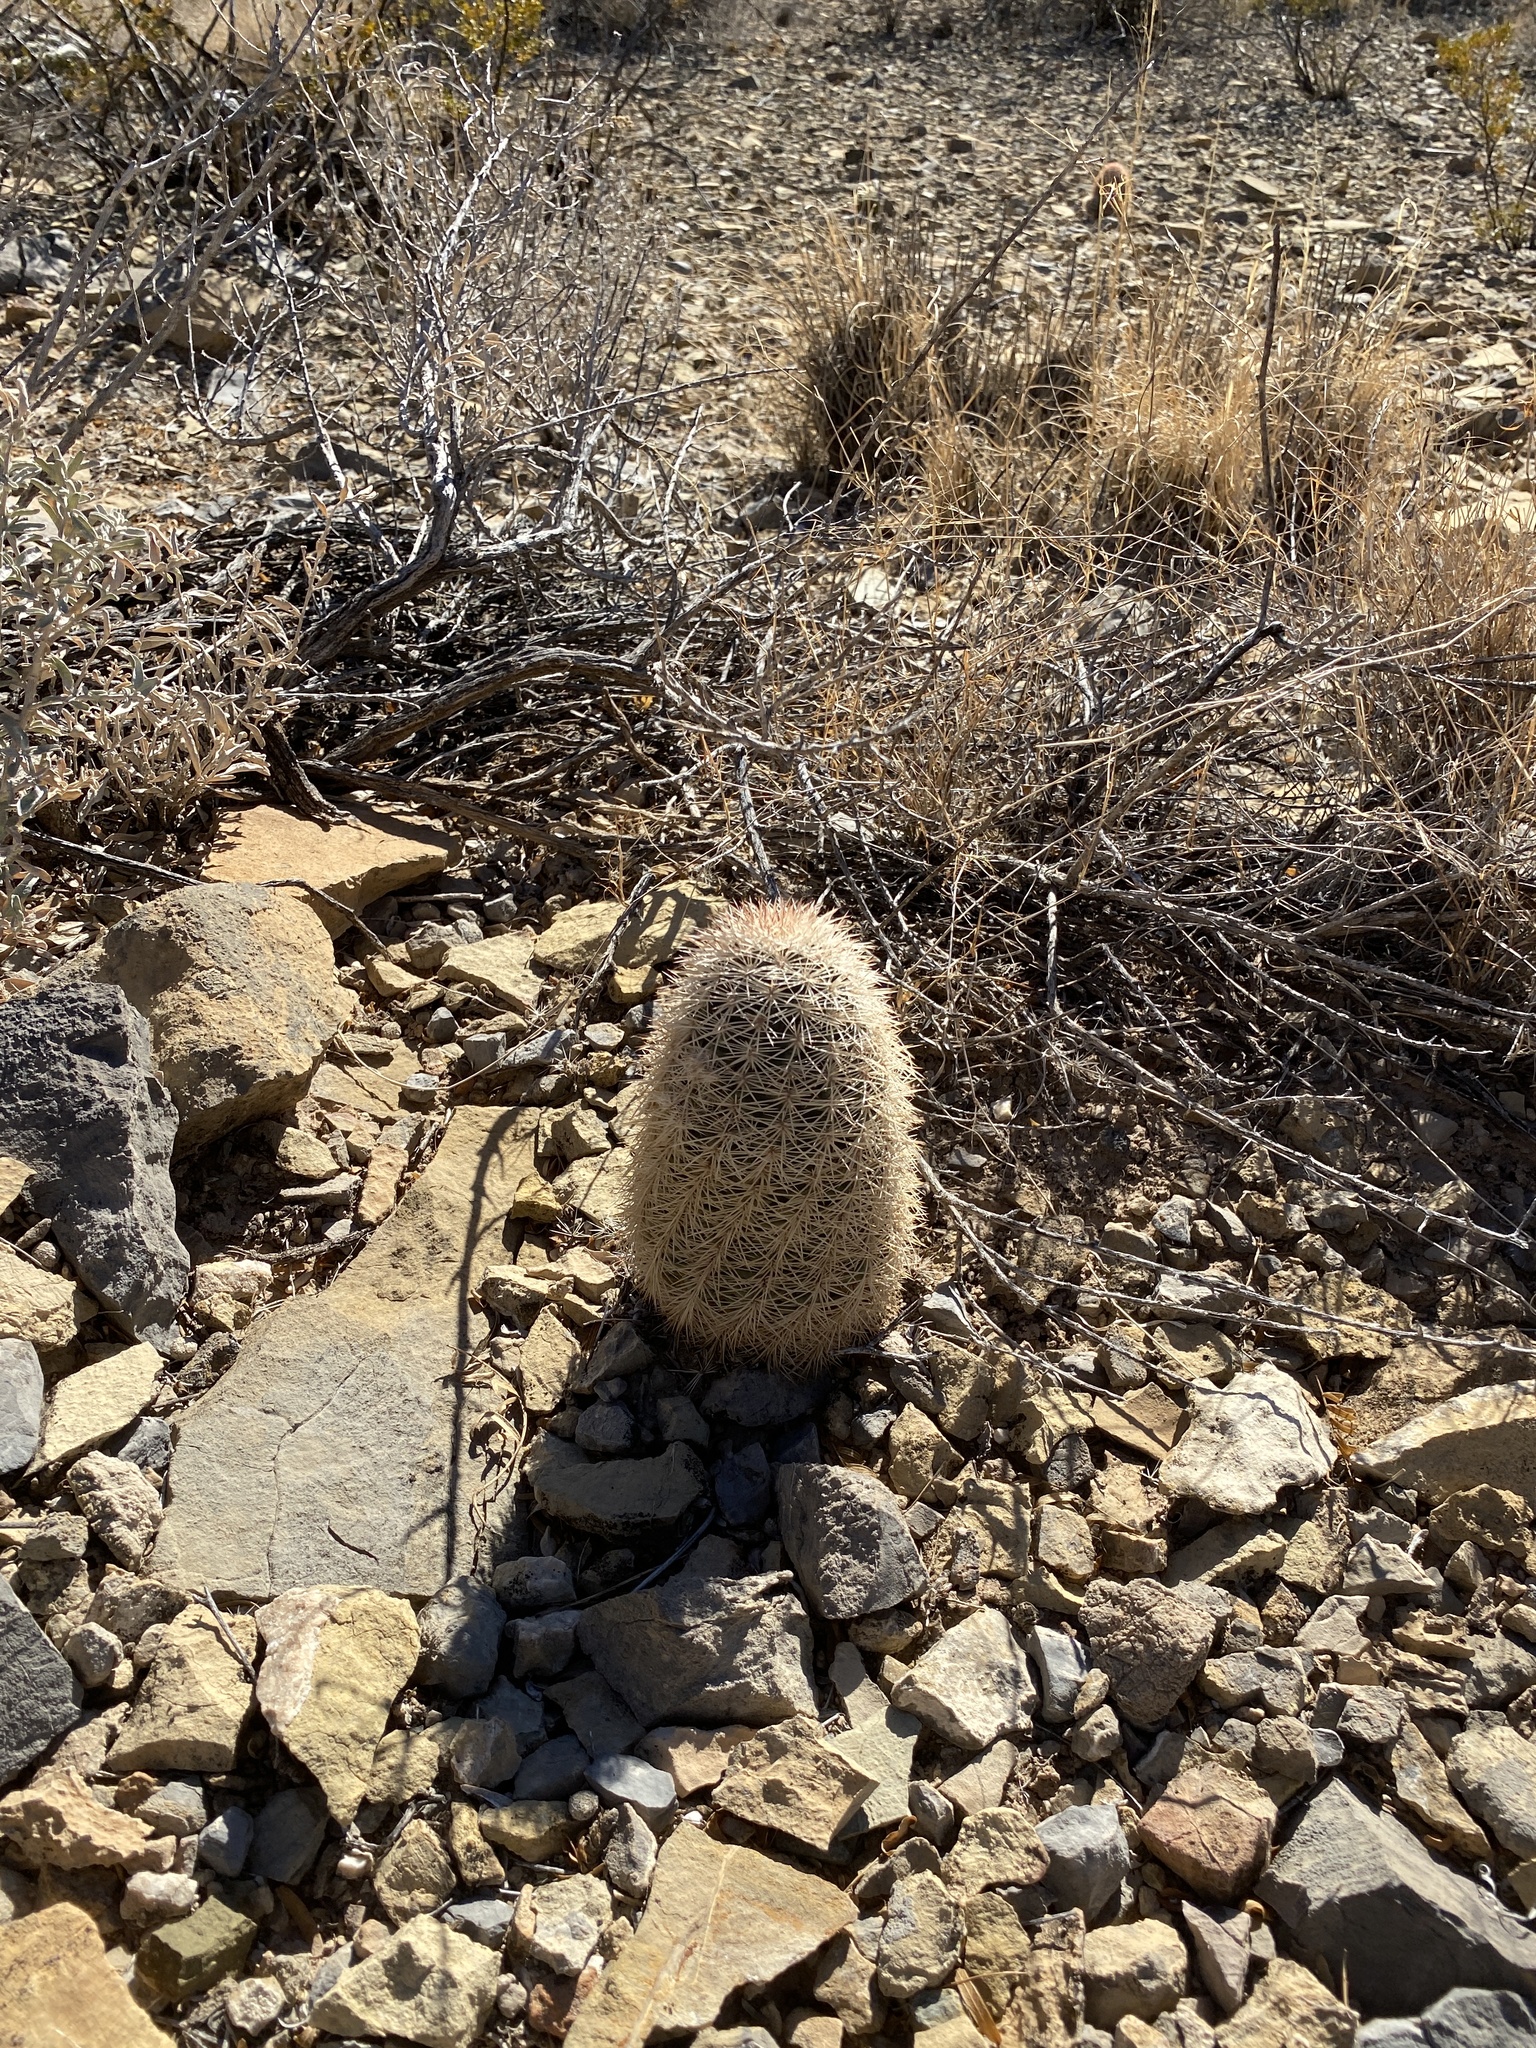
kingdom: Plantae
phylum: Tracheophyta
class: Magnoliopsida
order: Caryophyllales
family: Cactaceae
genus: Echinocereus
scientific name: Echinocereus dasyacanthus
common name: Spiny hedgehog cactus
